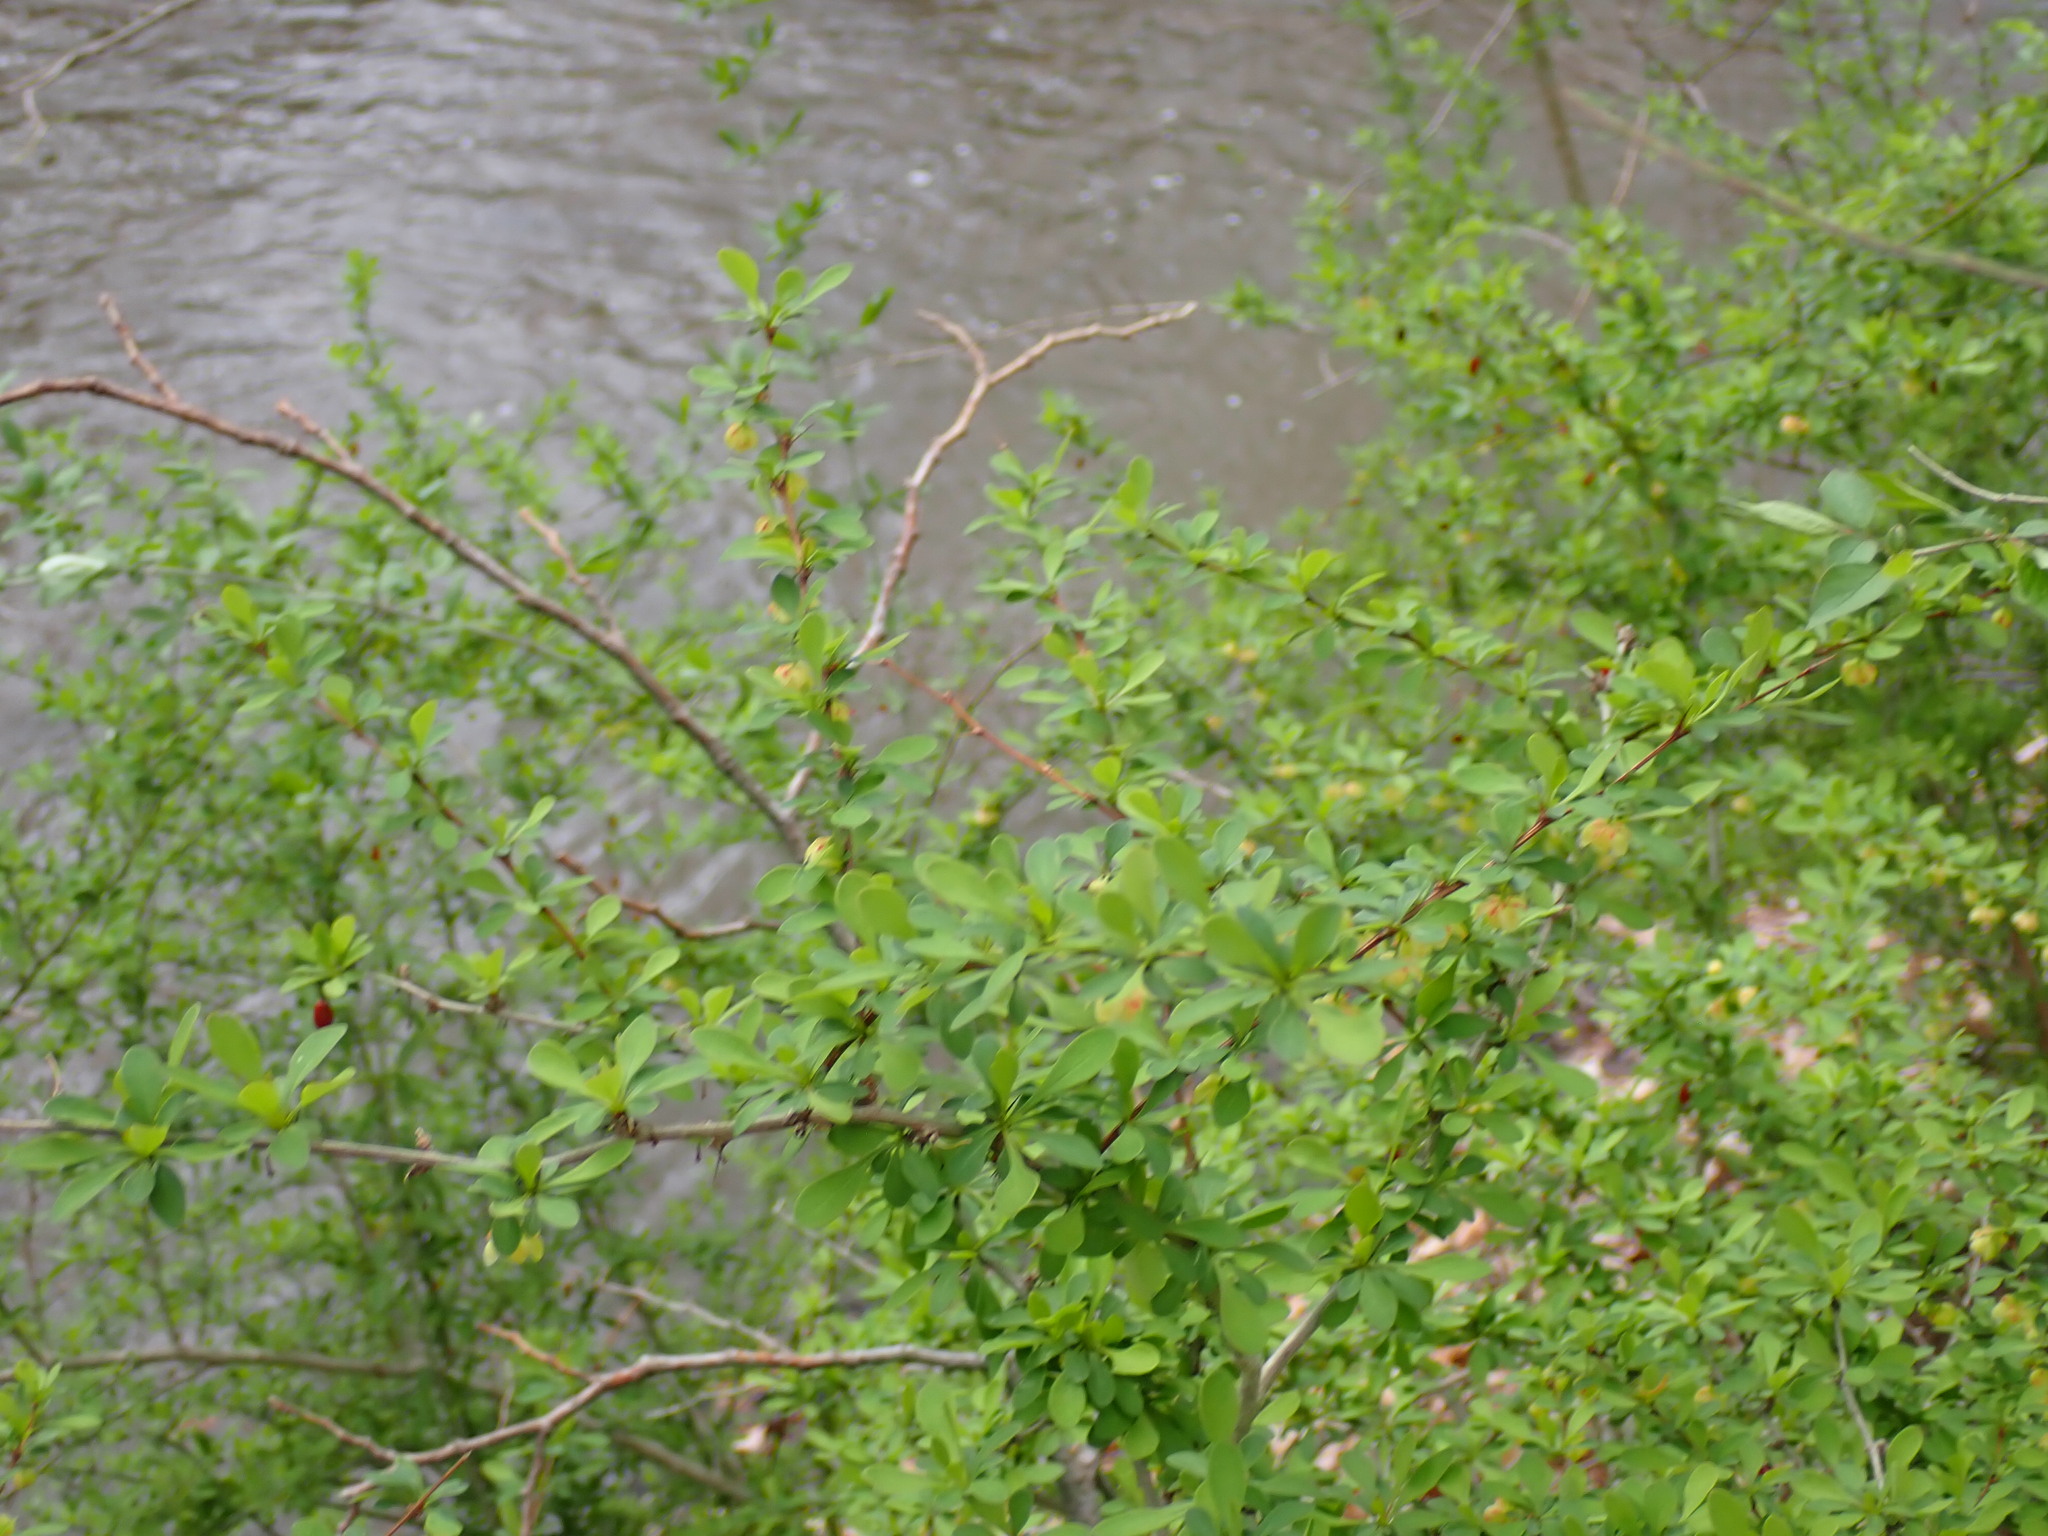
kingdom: Plantae
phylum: Tracheophyta
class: Magnoliopsida
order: Ranunculales
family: Berberidaceae
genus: Berberis
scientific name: Berberis thunbergii
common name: Japanese barberry
